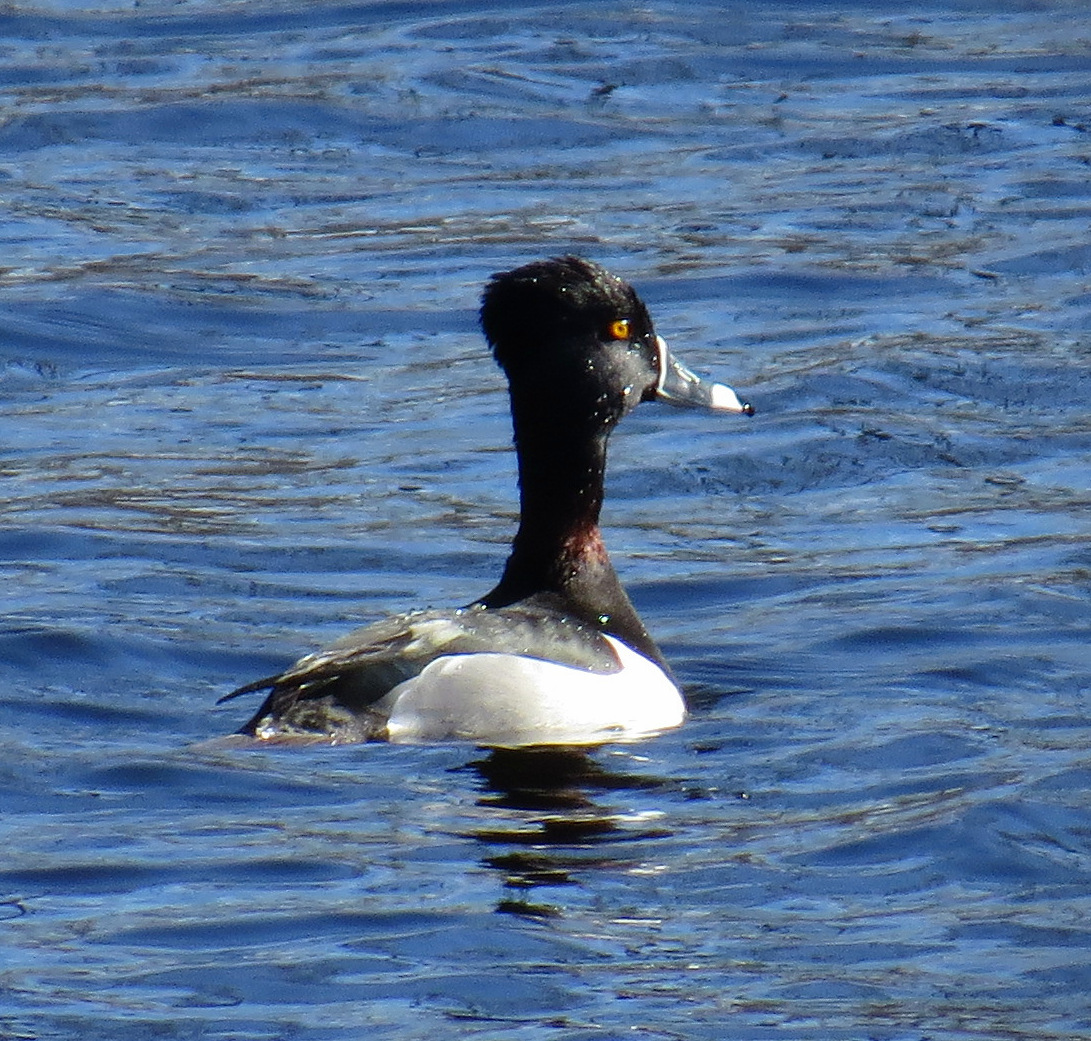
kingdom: Animalia
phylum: Chordata
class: Aves
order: Anseriformes
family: Anatidae
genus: Aythya
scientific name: Aythya collaris
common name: Ring-necked duck
